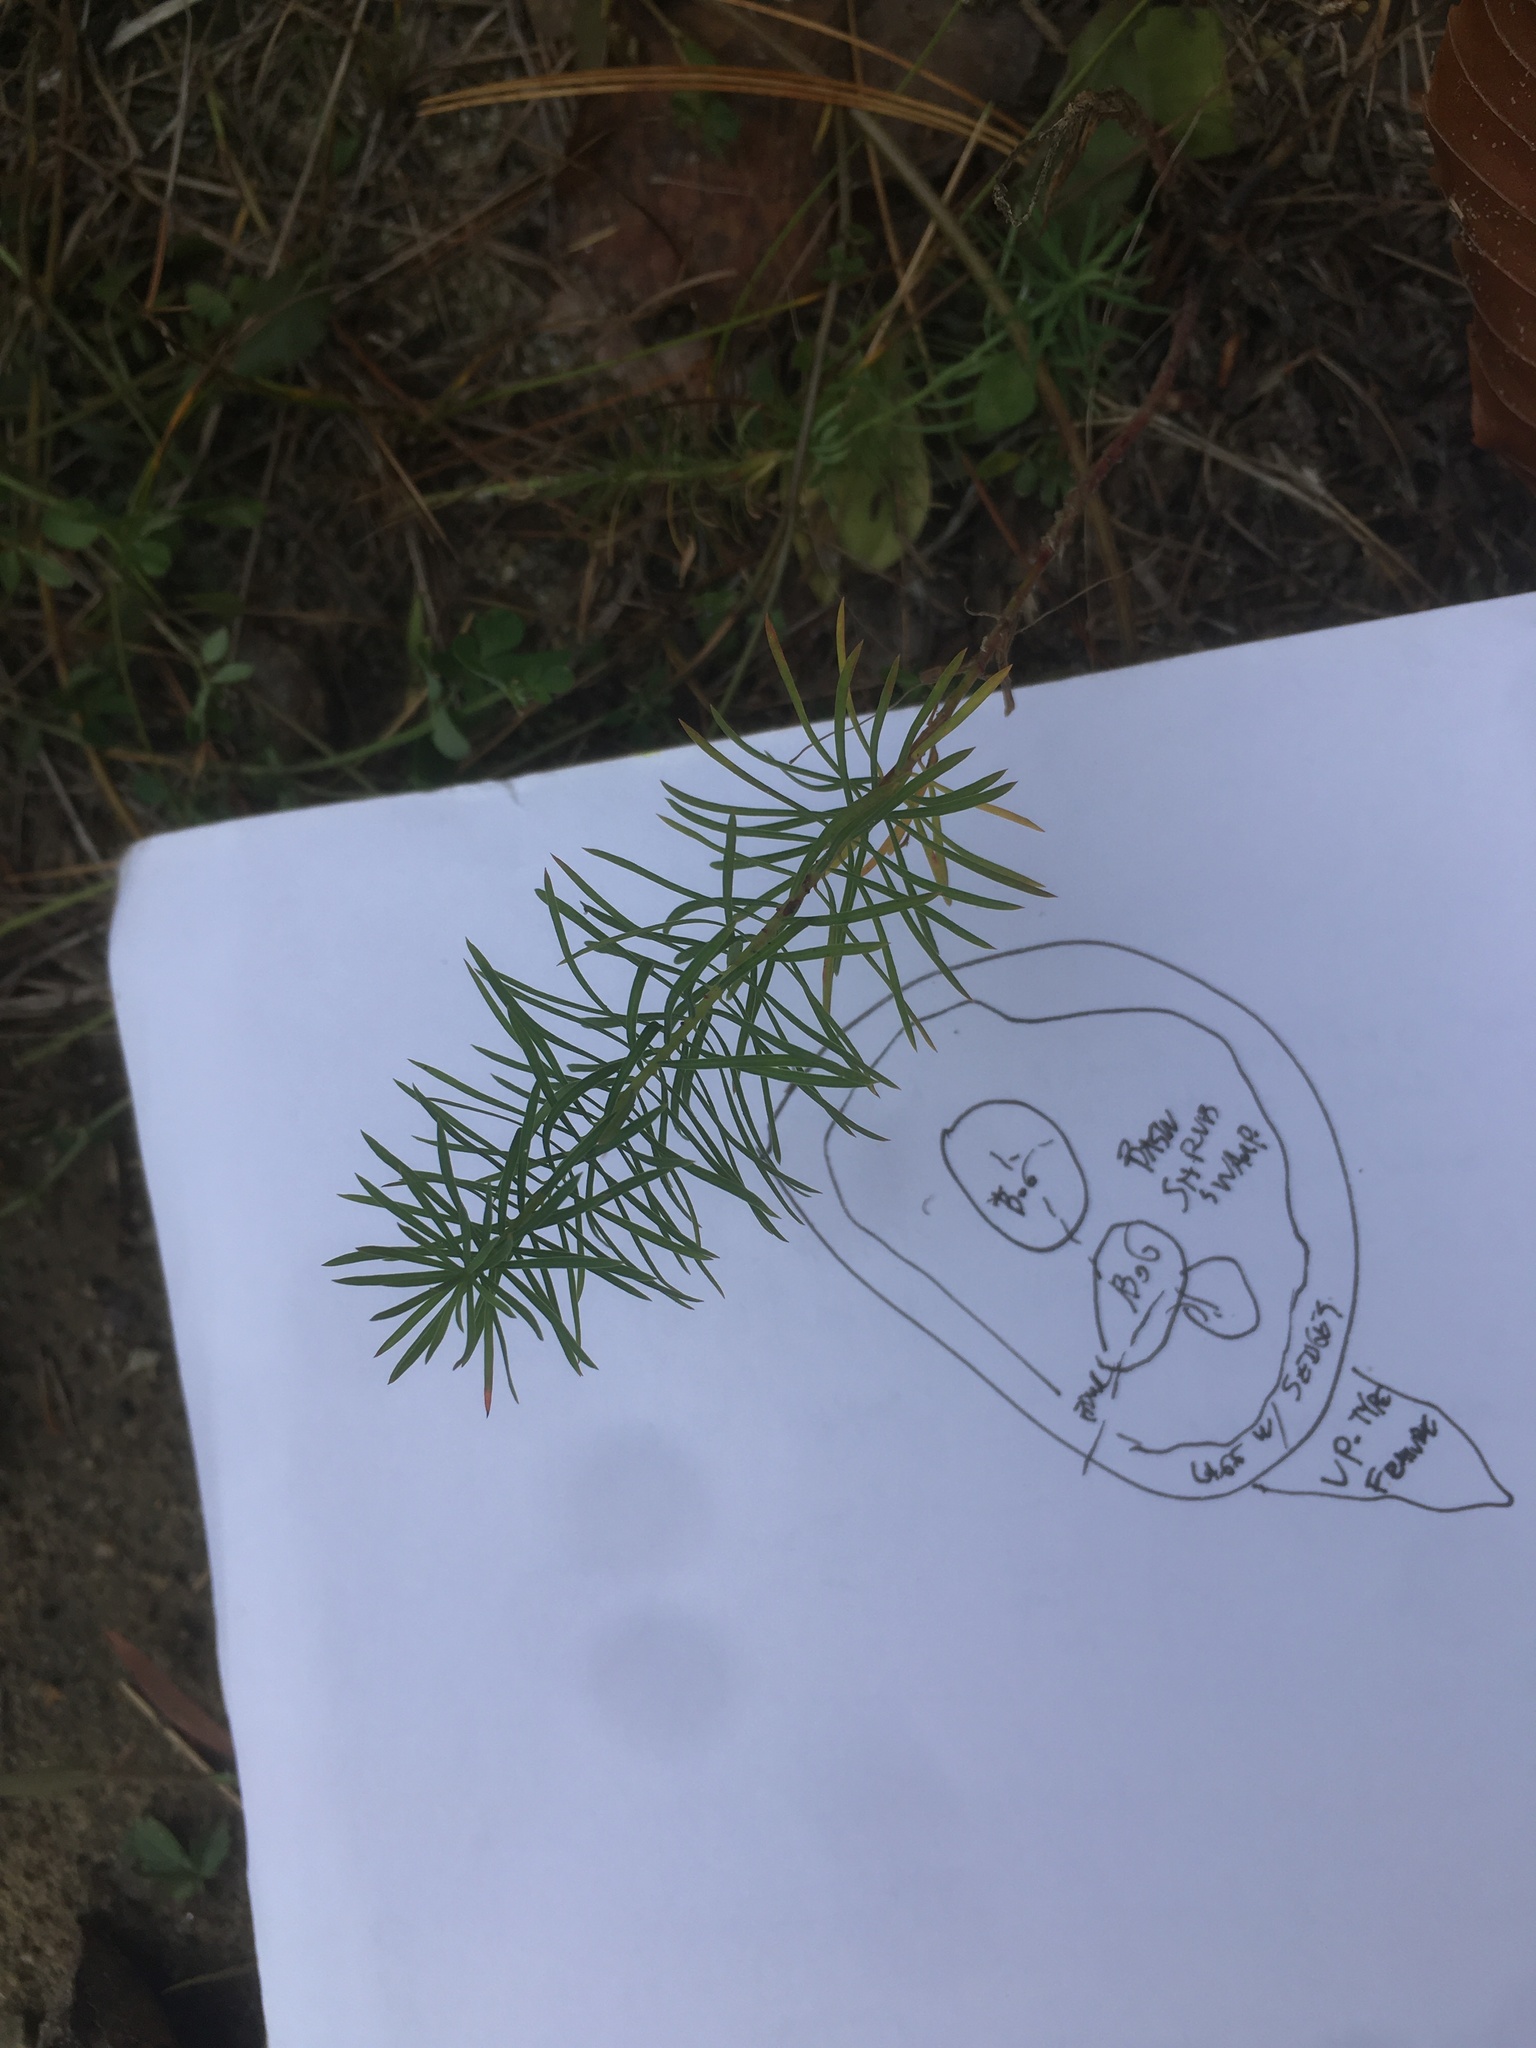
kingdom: Plantae
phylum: Tracheophyta
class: Magnoliopsida
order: Malpighiales
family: Euphorbiaceae
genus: Euphorbia
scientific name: Euphorbia cyparissias
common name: Cypress spurge
